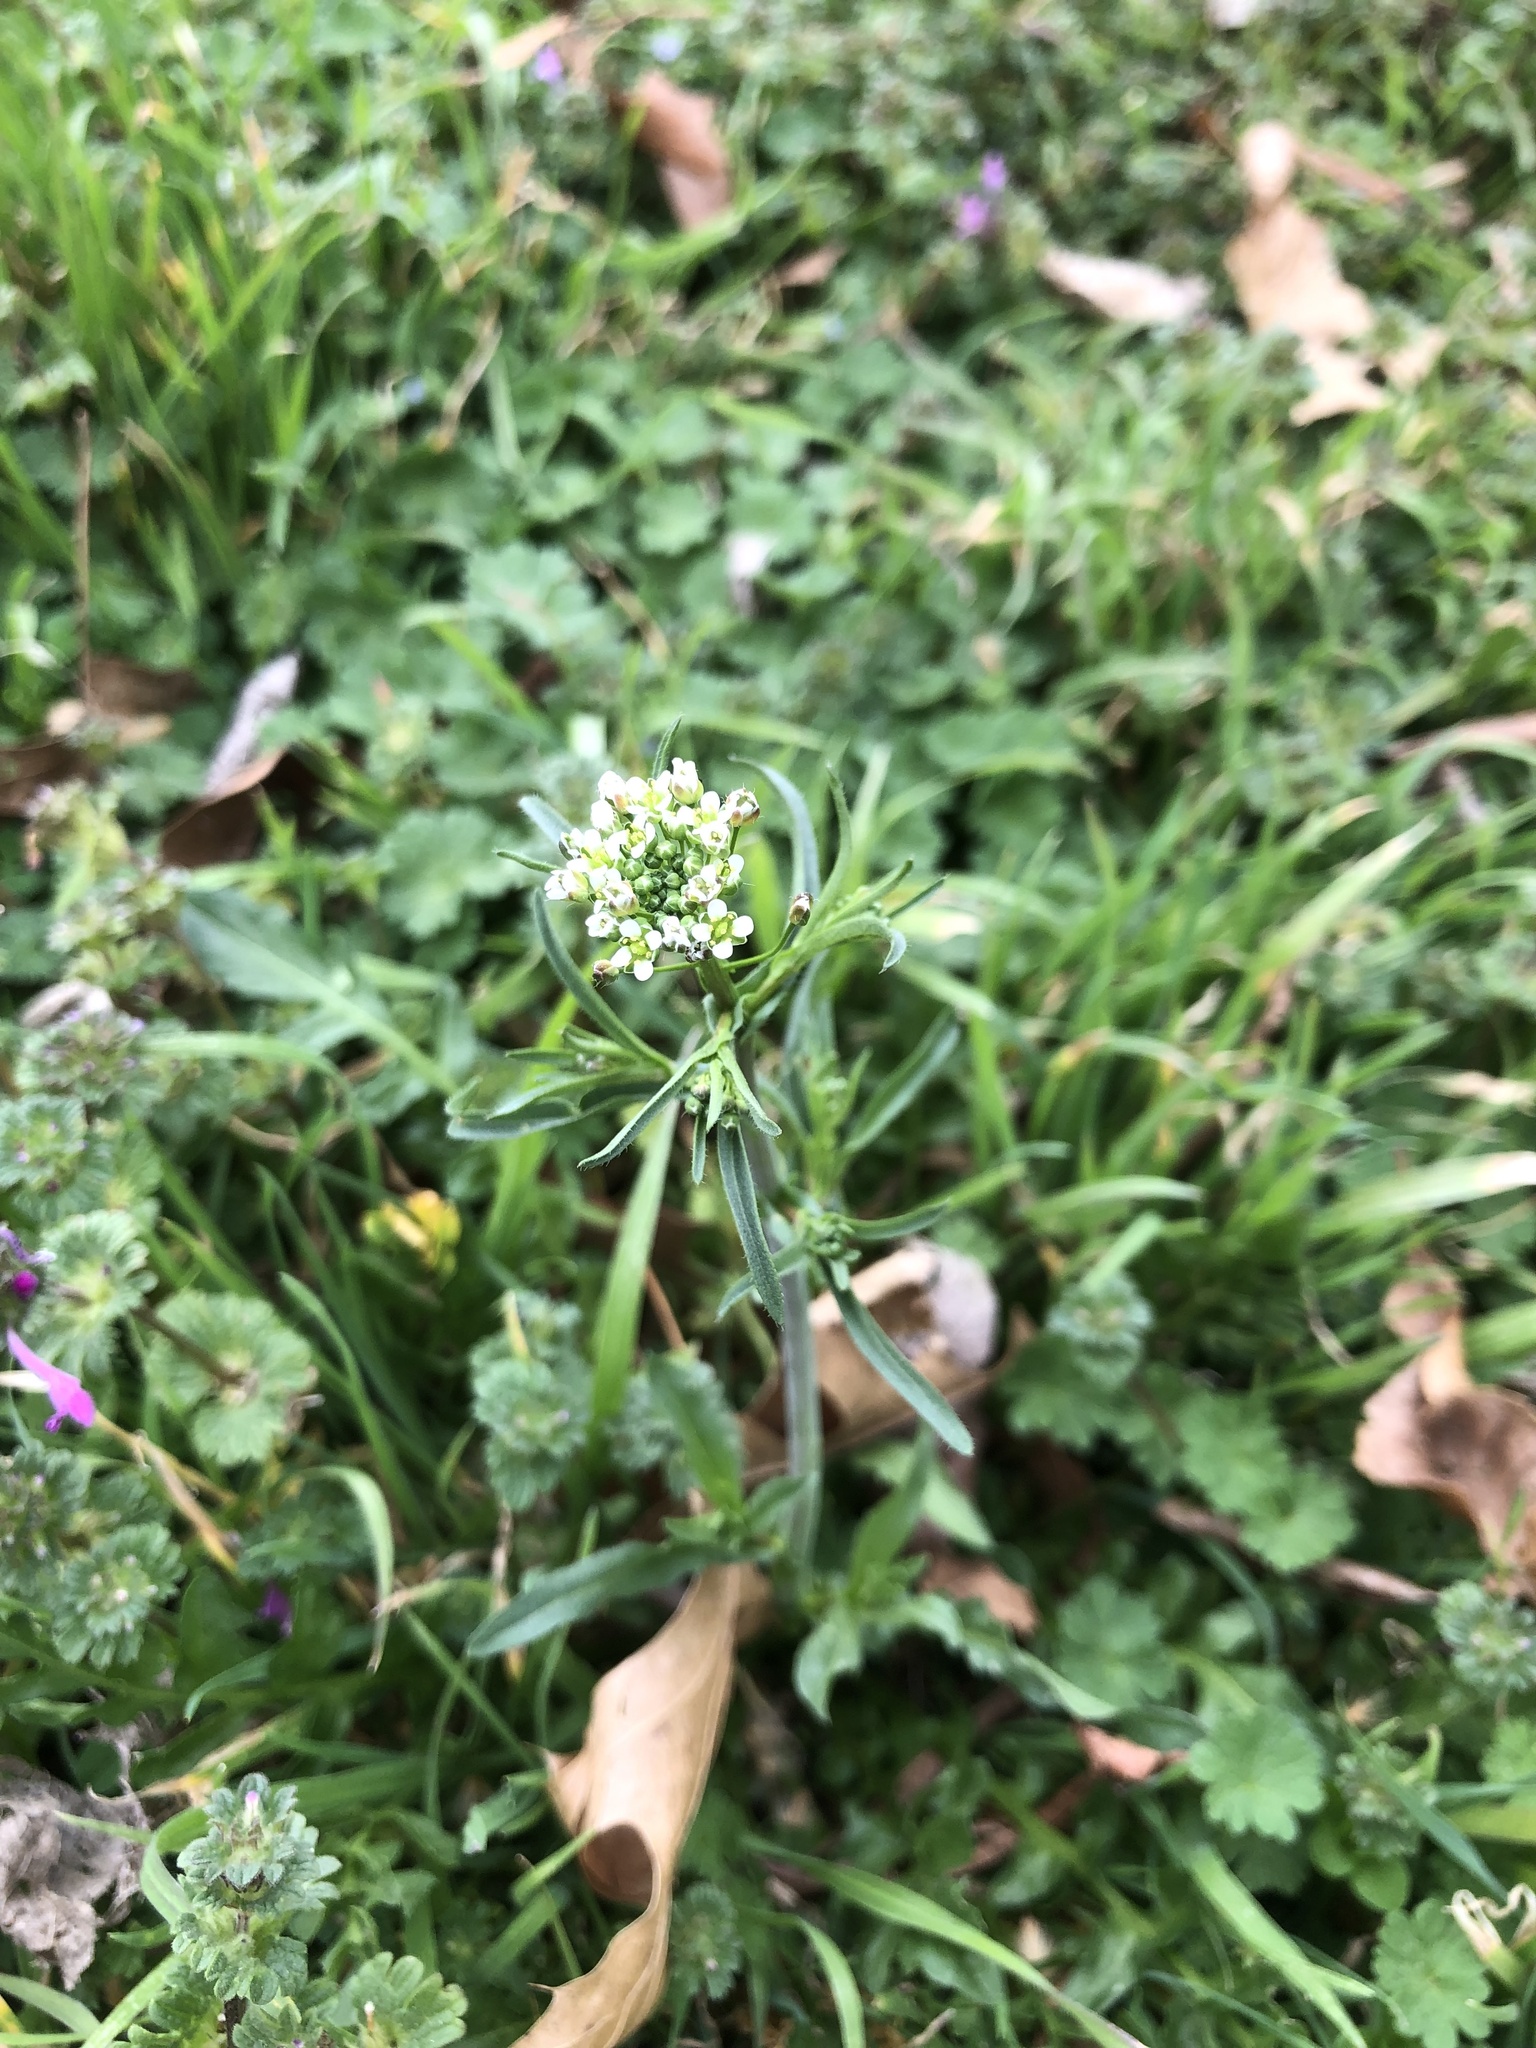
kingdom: Plantae
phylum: Tracheophyta
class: Magnoliopsida
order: Brassicales
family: Brassicaceae
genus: Capsella
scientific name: Capsella bursa-pastoris
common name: Shepherd's purse
